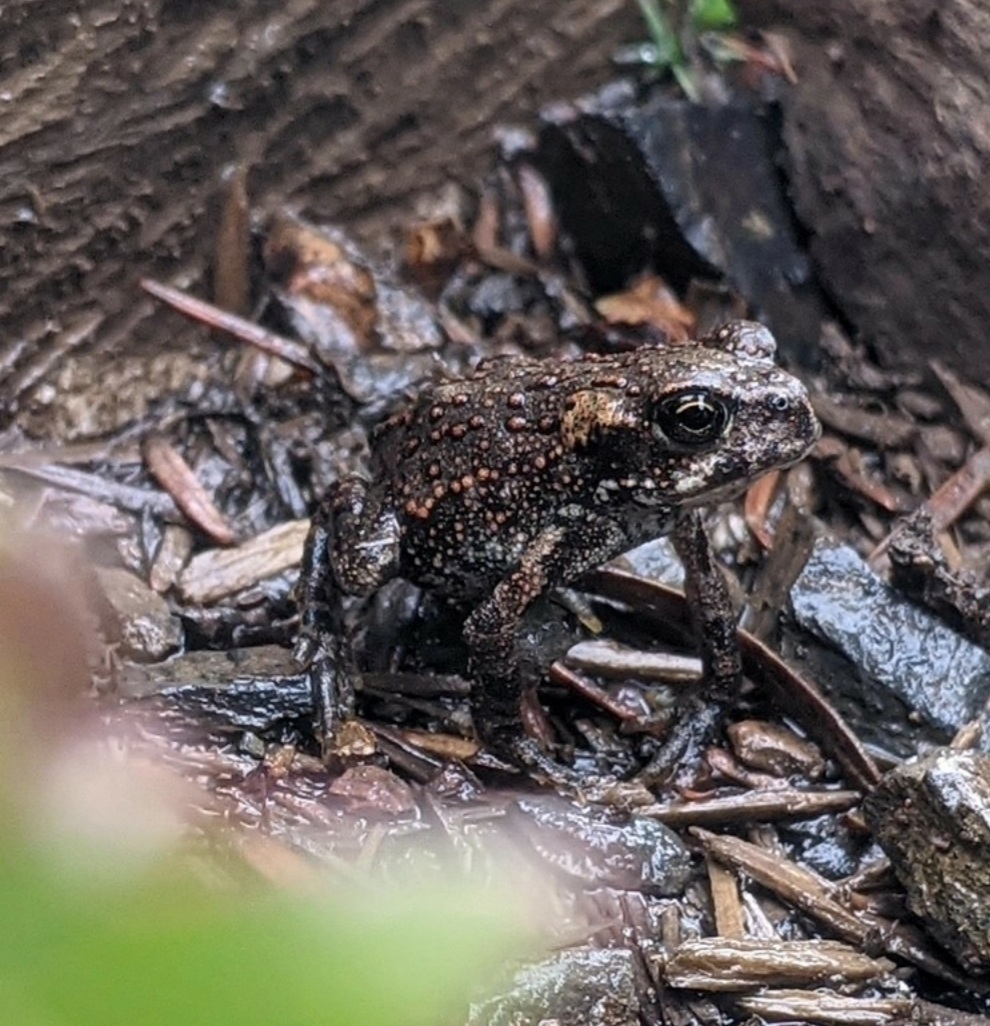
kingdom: Animalia
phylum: Chordata
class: Amphibia
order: Anura
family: Bufonidae
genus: Anaxyrus
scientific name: Anaxyrus boreas
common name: Western toad
